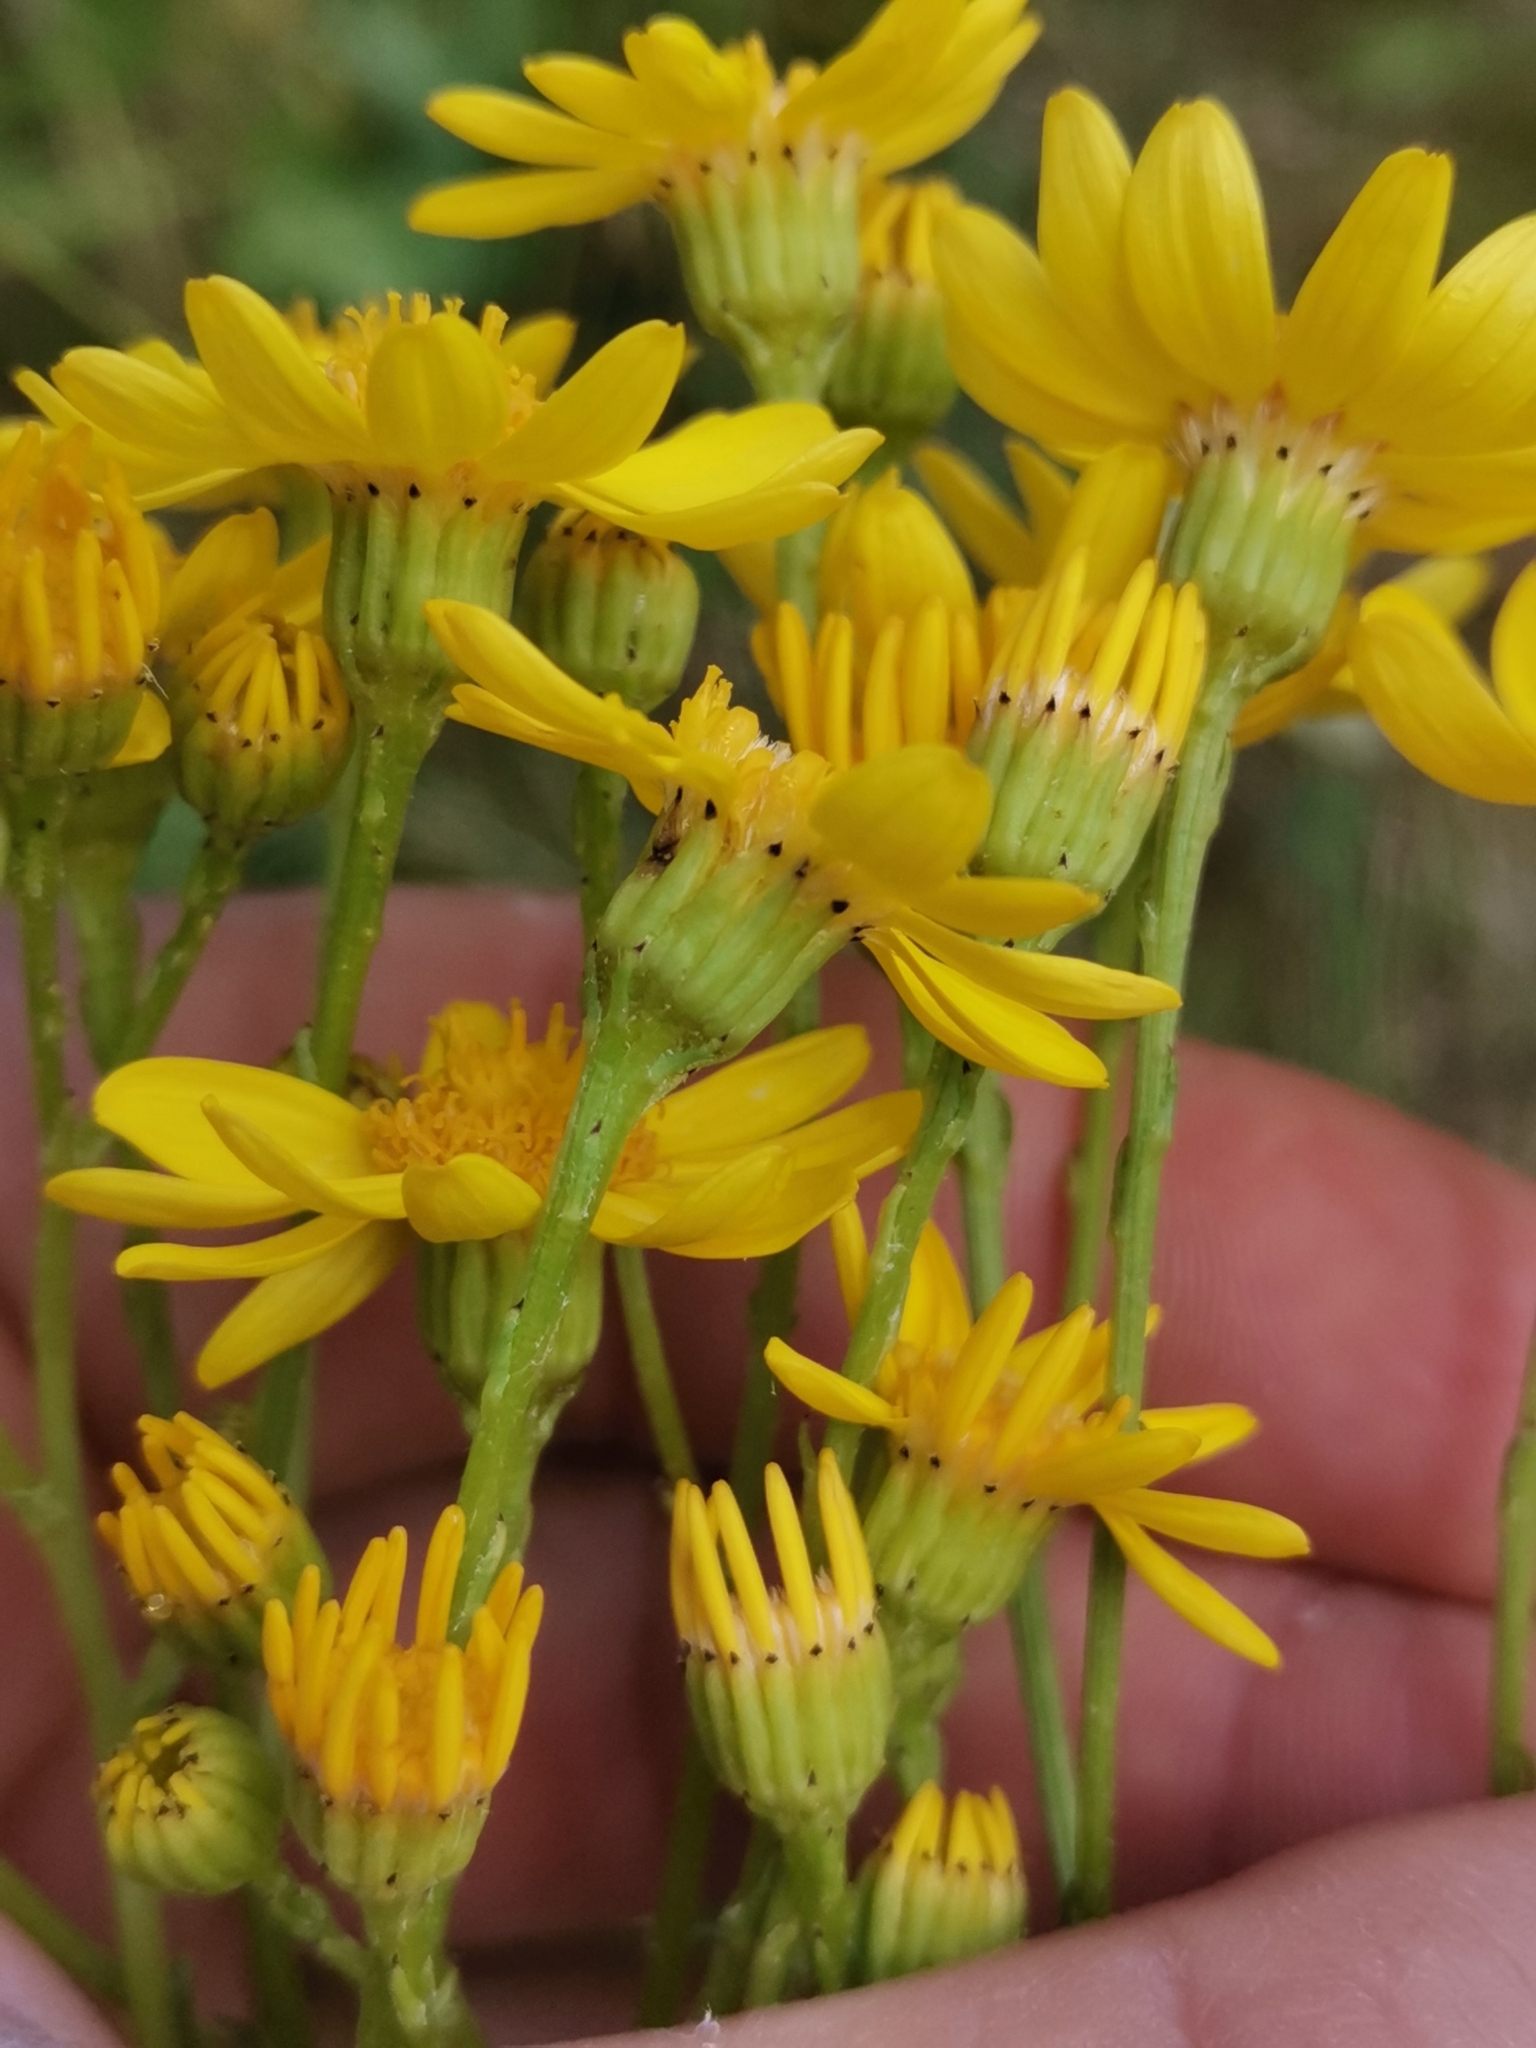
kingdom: Plantae
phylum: Tracheophyta
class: Magnoliopsida
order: Asterales
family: Asteraceae
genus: Jacobaea
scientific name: Jacobaea vulgaris
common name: Stinking willie
